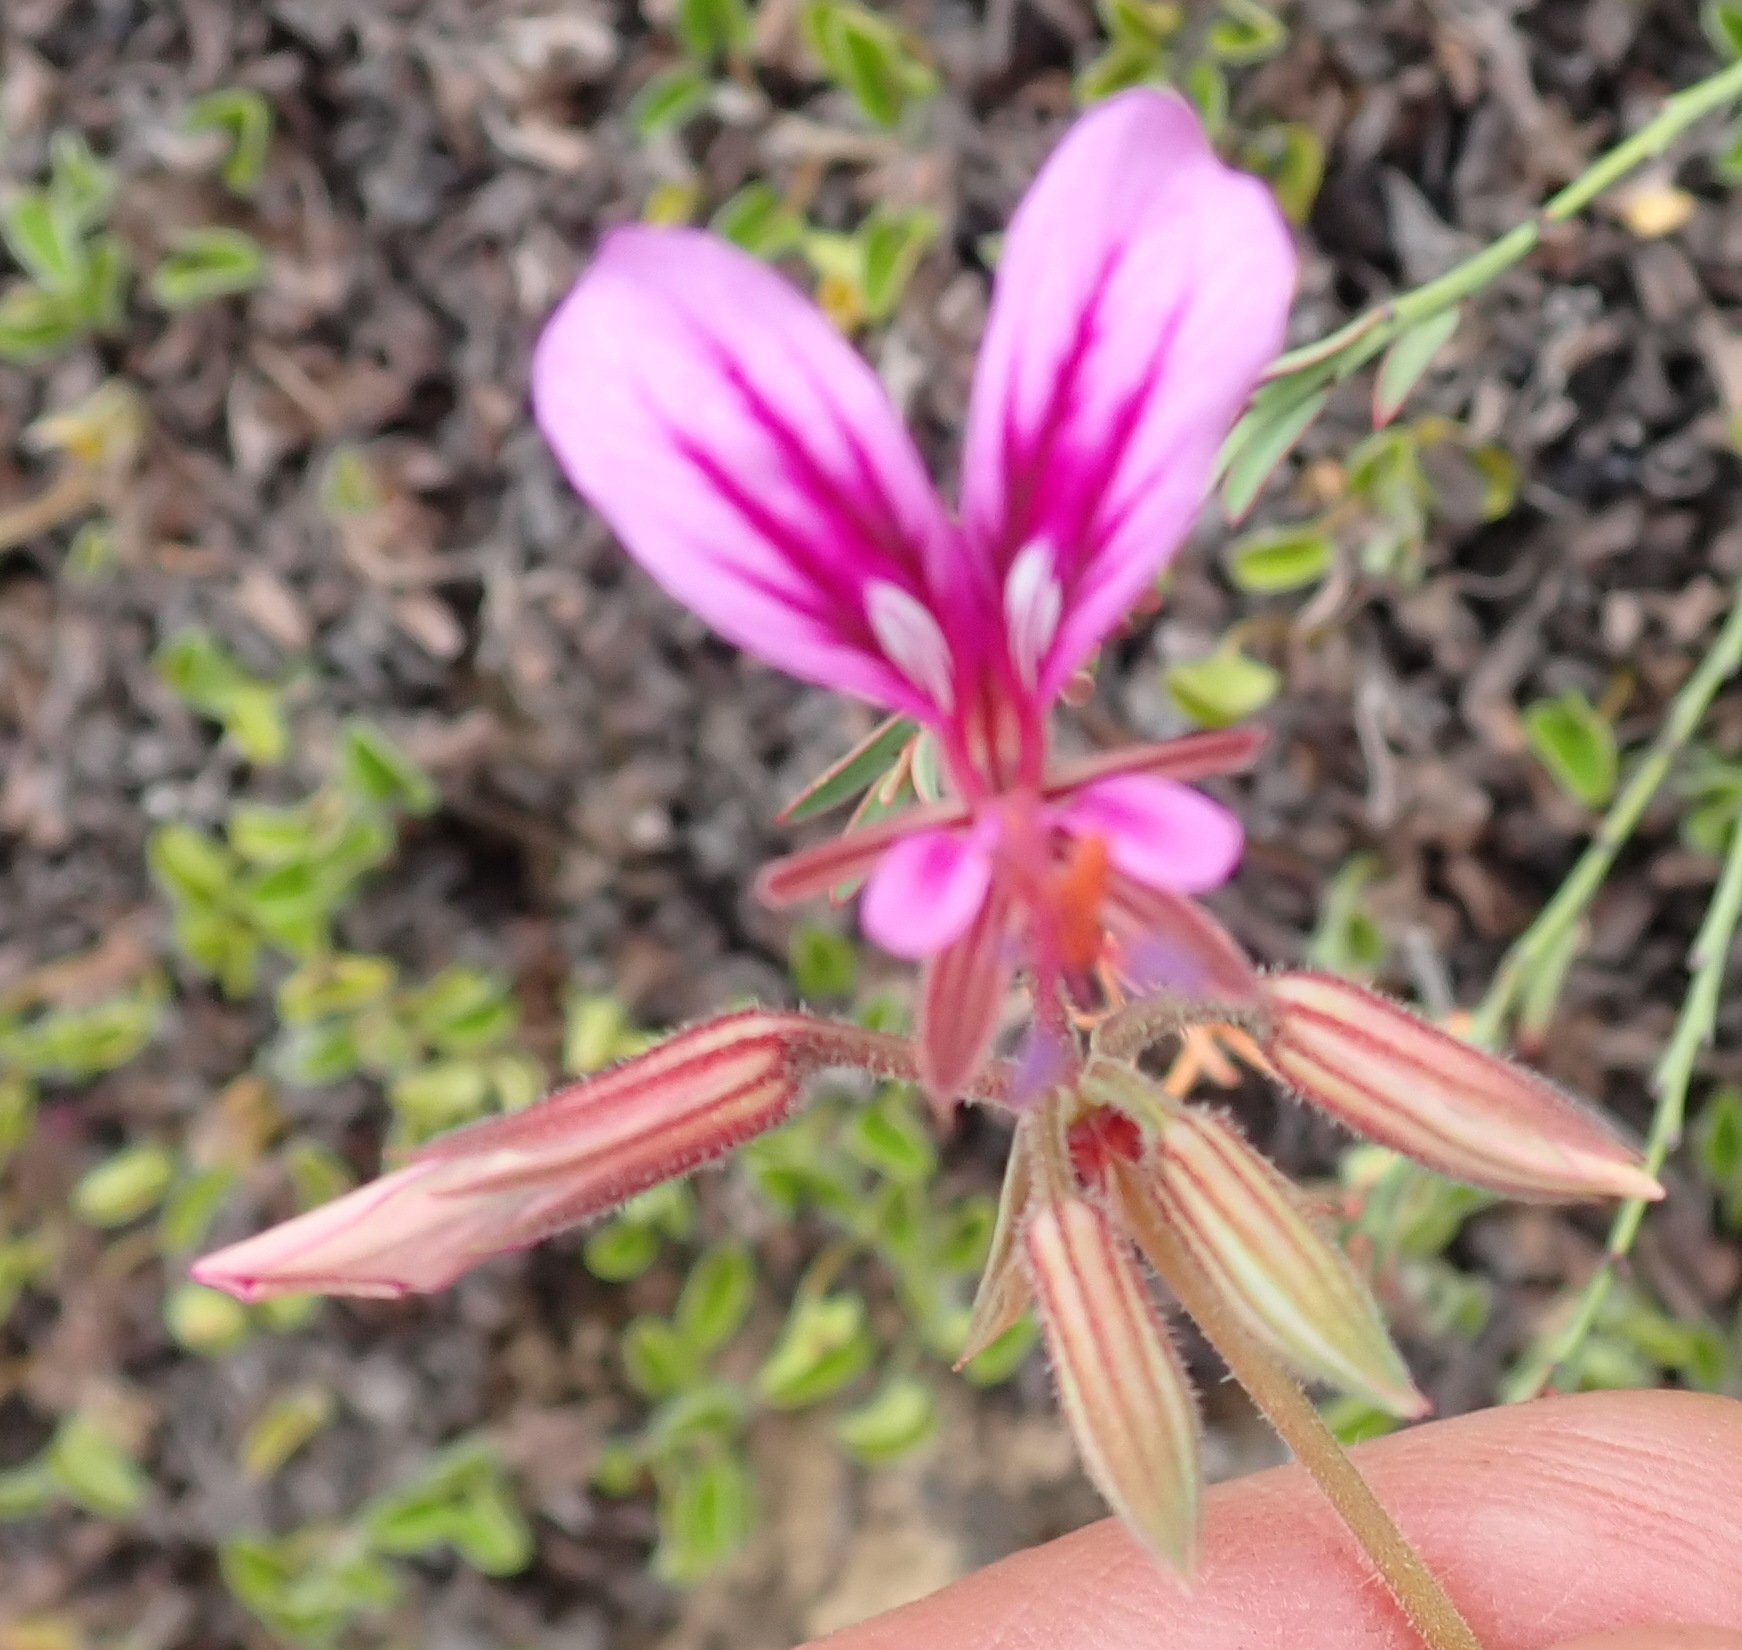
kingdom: Plantae
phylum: Tracheophyta
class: Magnoliopsida
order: Geraniales
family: Geraniaceae
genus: Pelargonium
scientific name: Pelargonium multicaule
